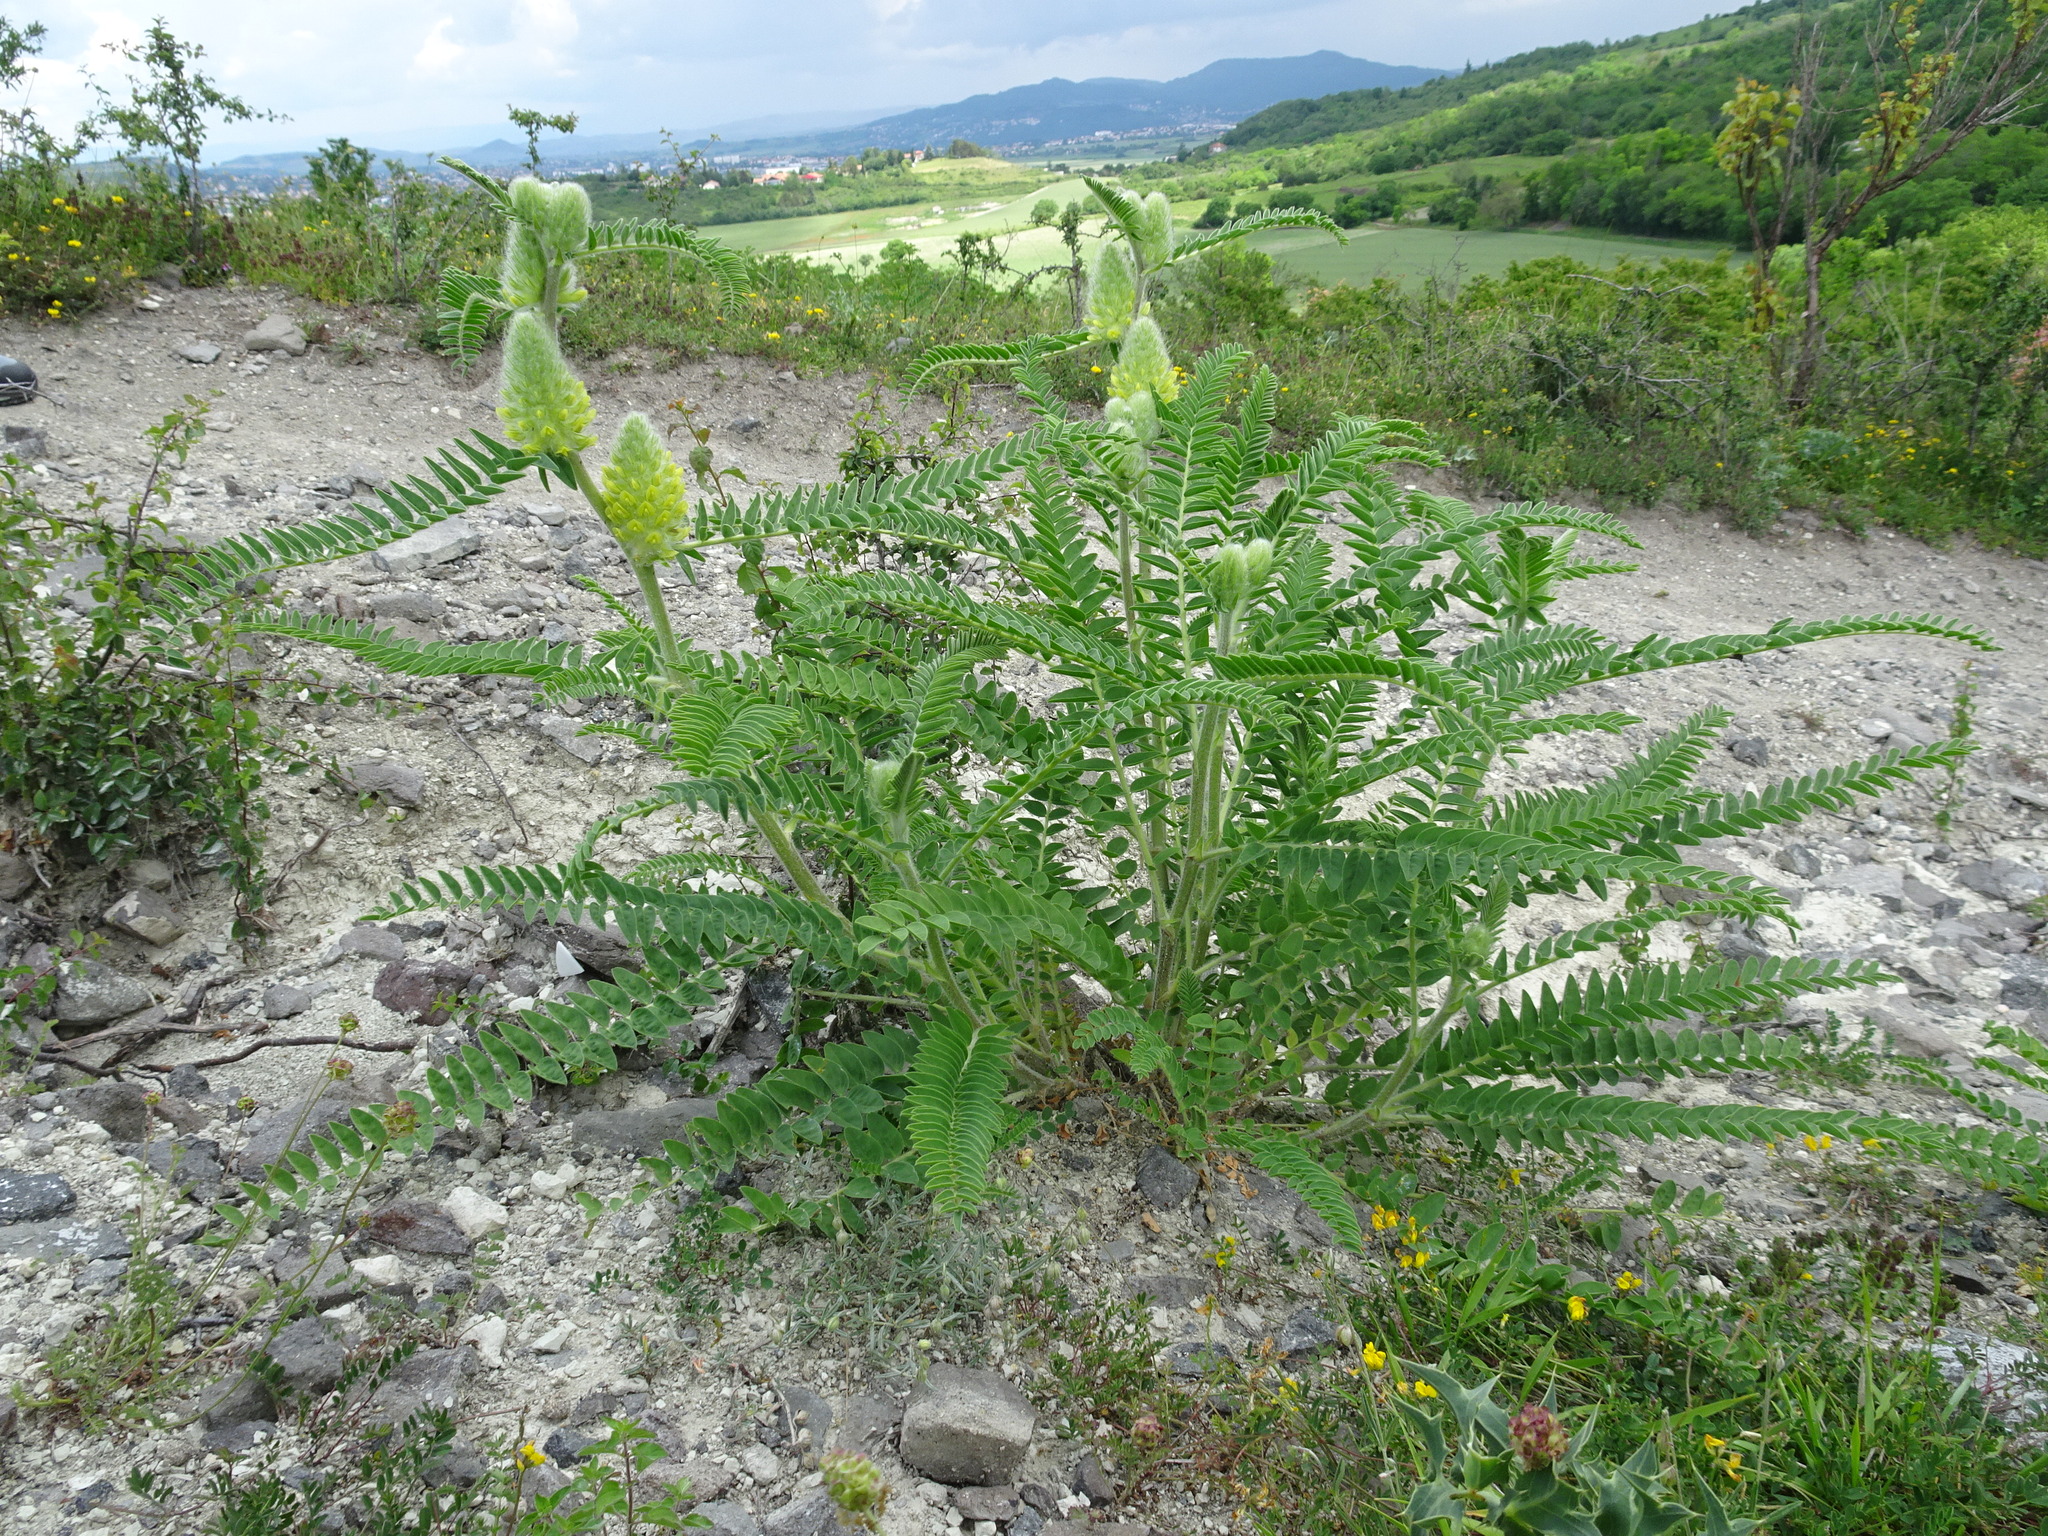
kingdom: Plantae
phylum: Tracheophyta
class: Magnoliopsida
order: Fabales
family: Fabaceae
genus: Astragalus
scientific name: Astragalus alopecurus
